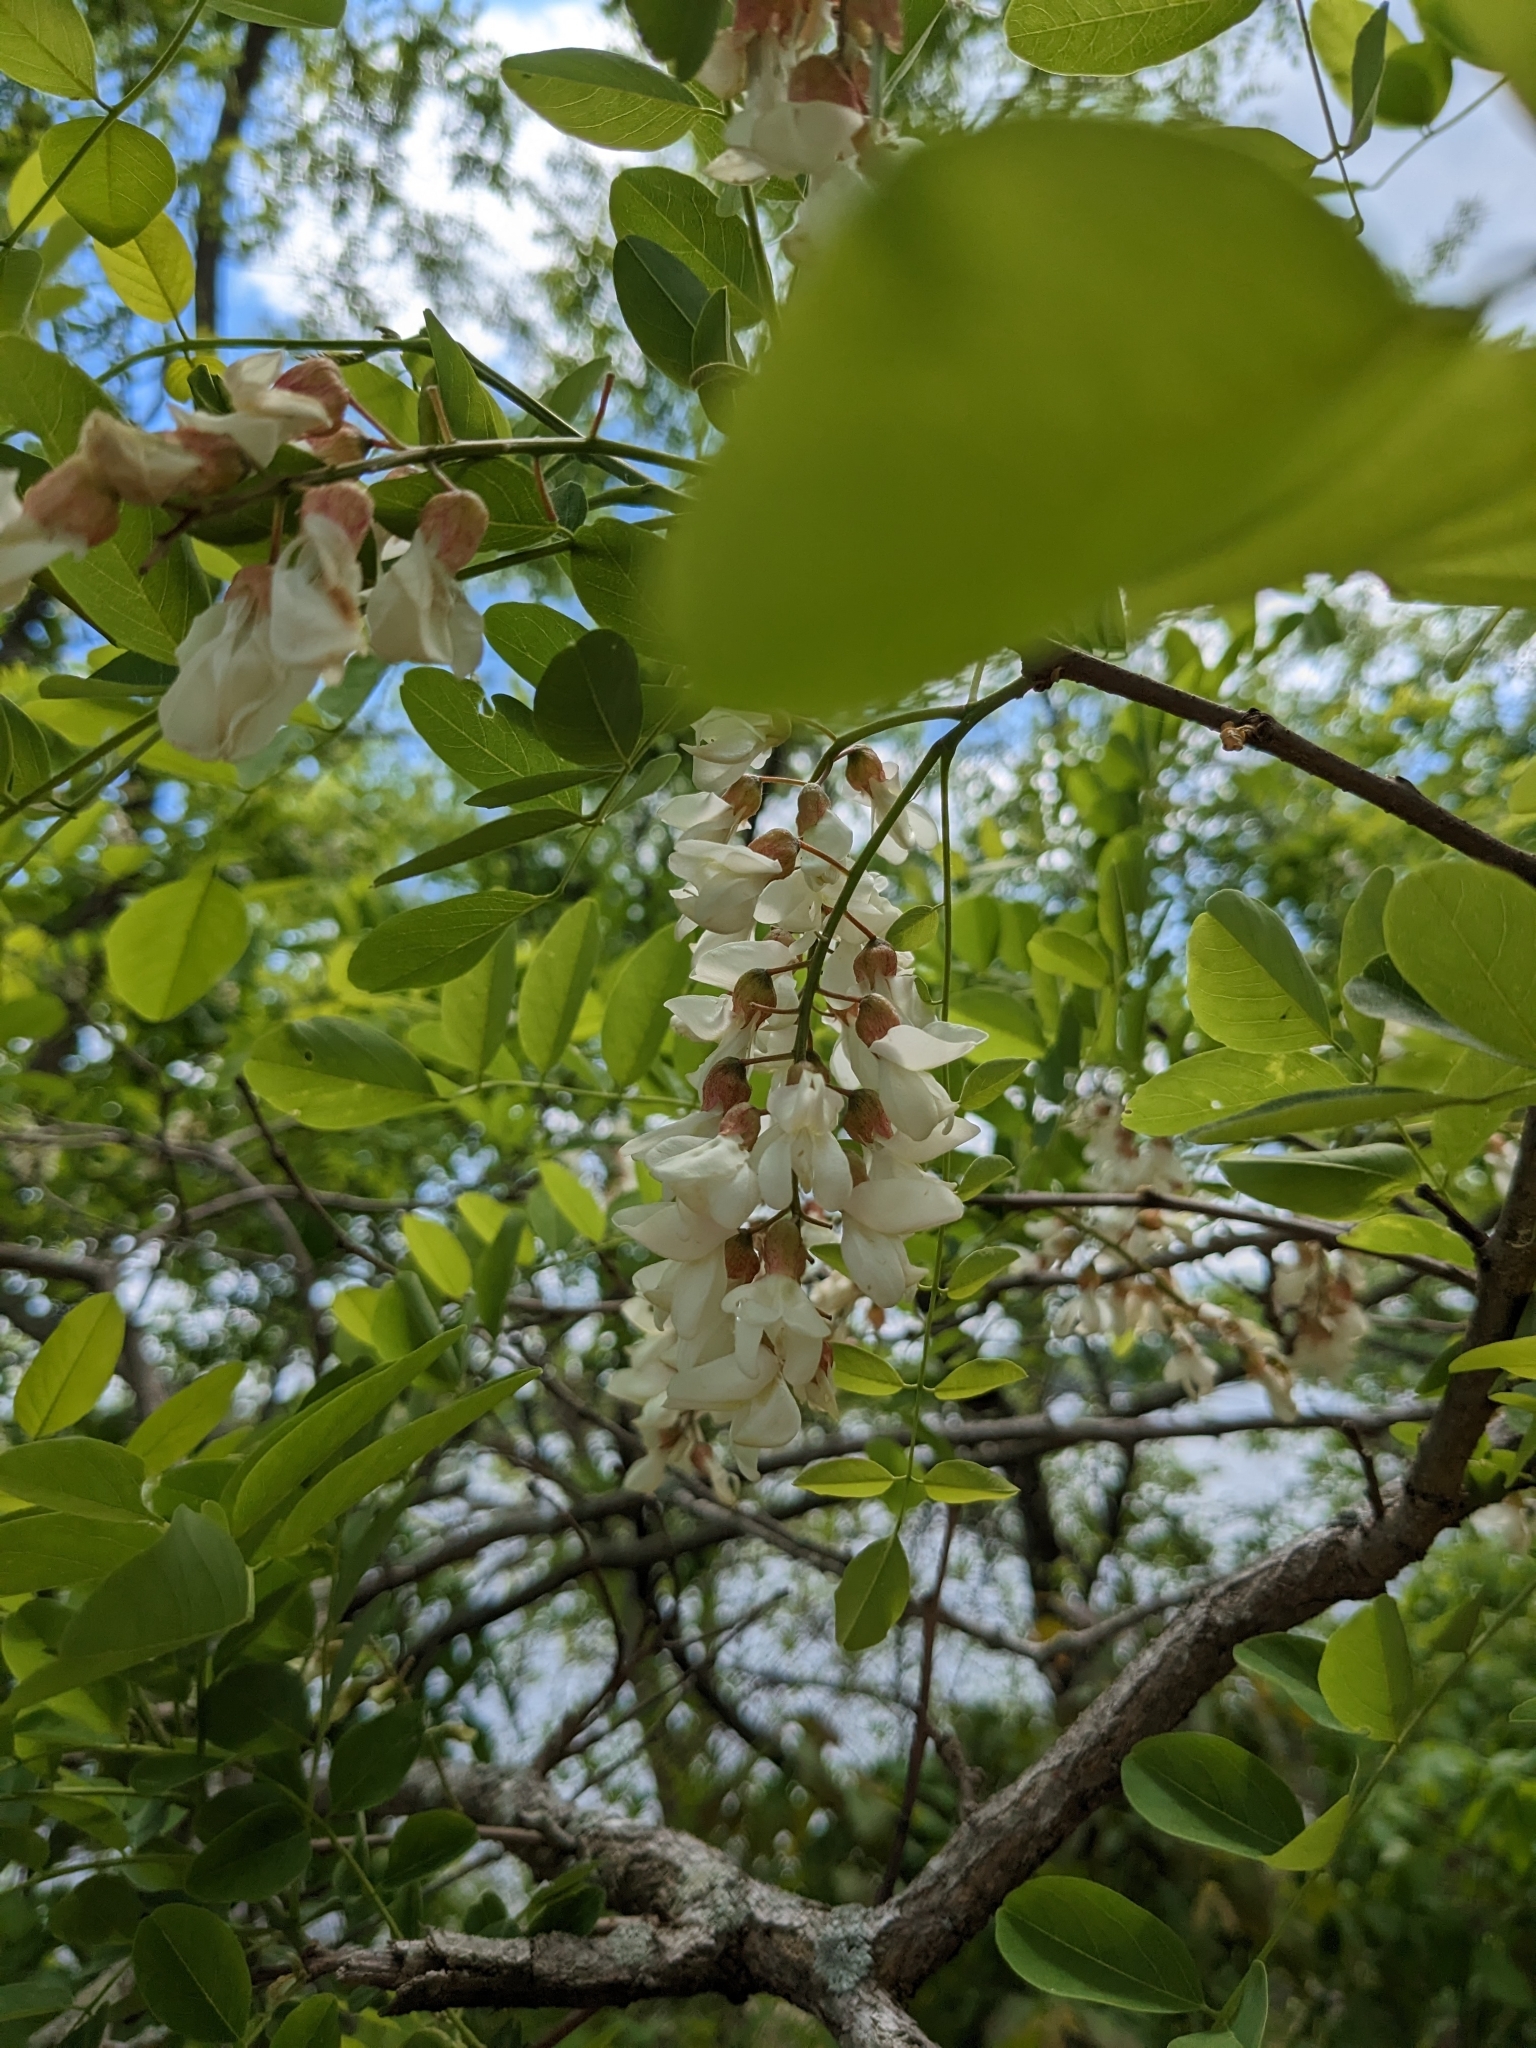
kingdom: Plantae
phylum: Tracheophyta
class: Magnoliopsida
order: Fabales
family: Fabaceae
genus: Robinia
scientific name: Robinia pseudoacacia
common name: Black locust
